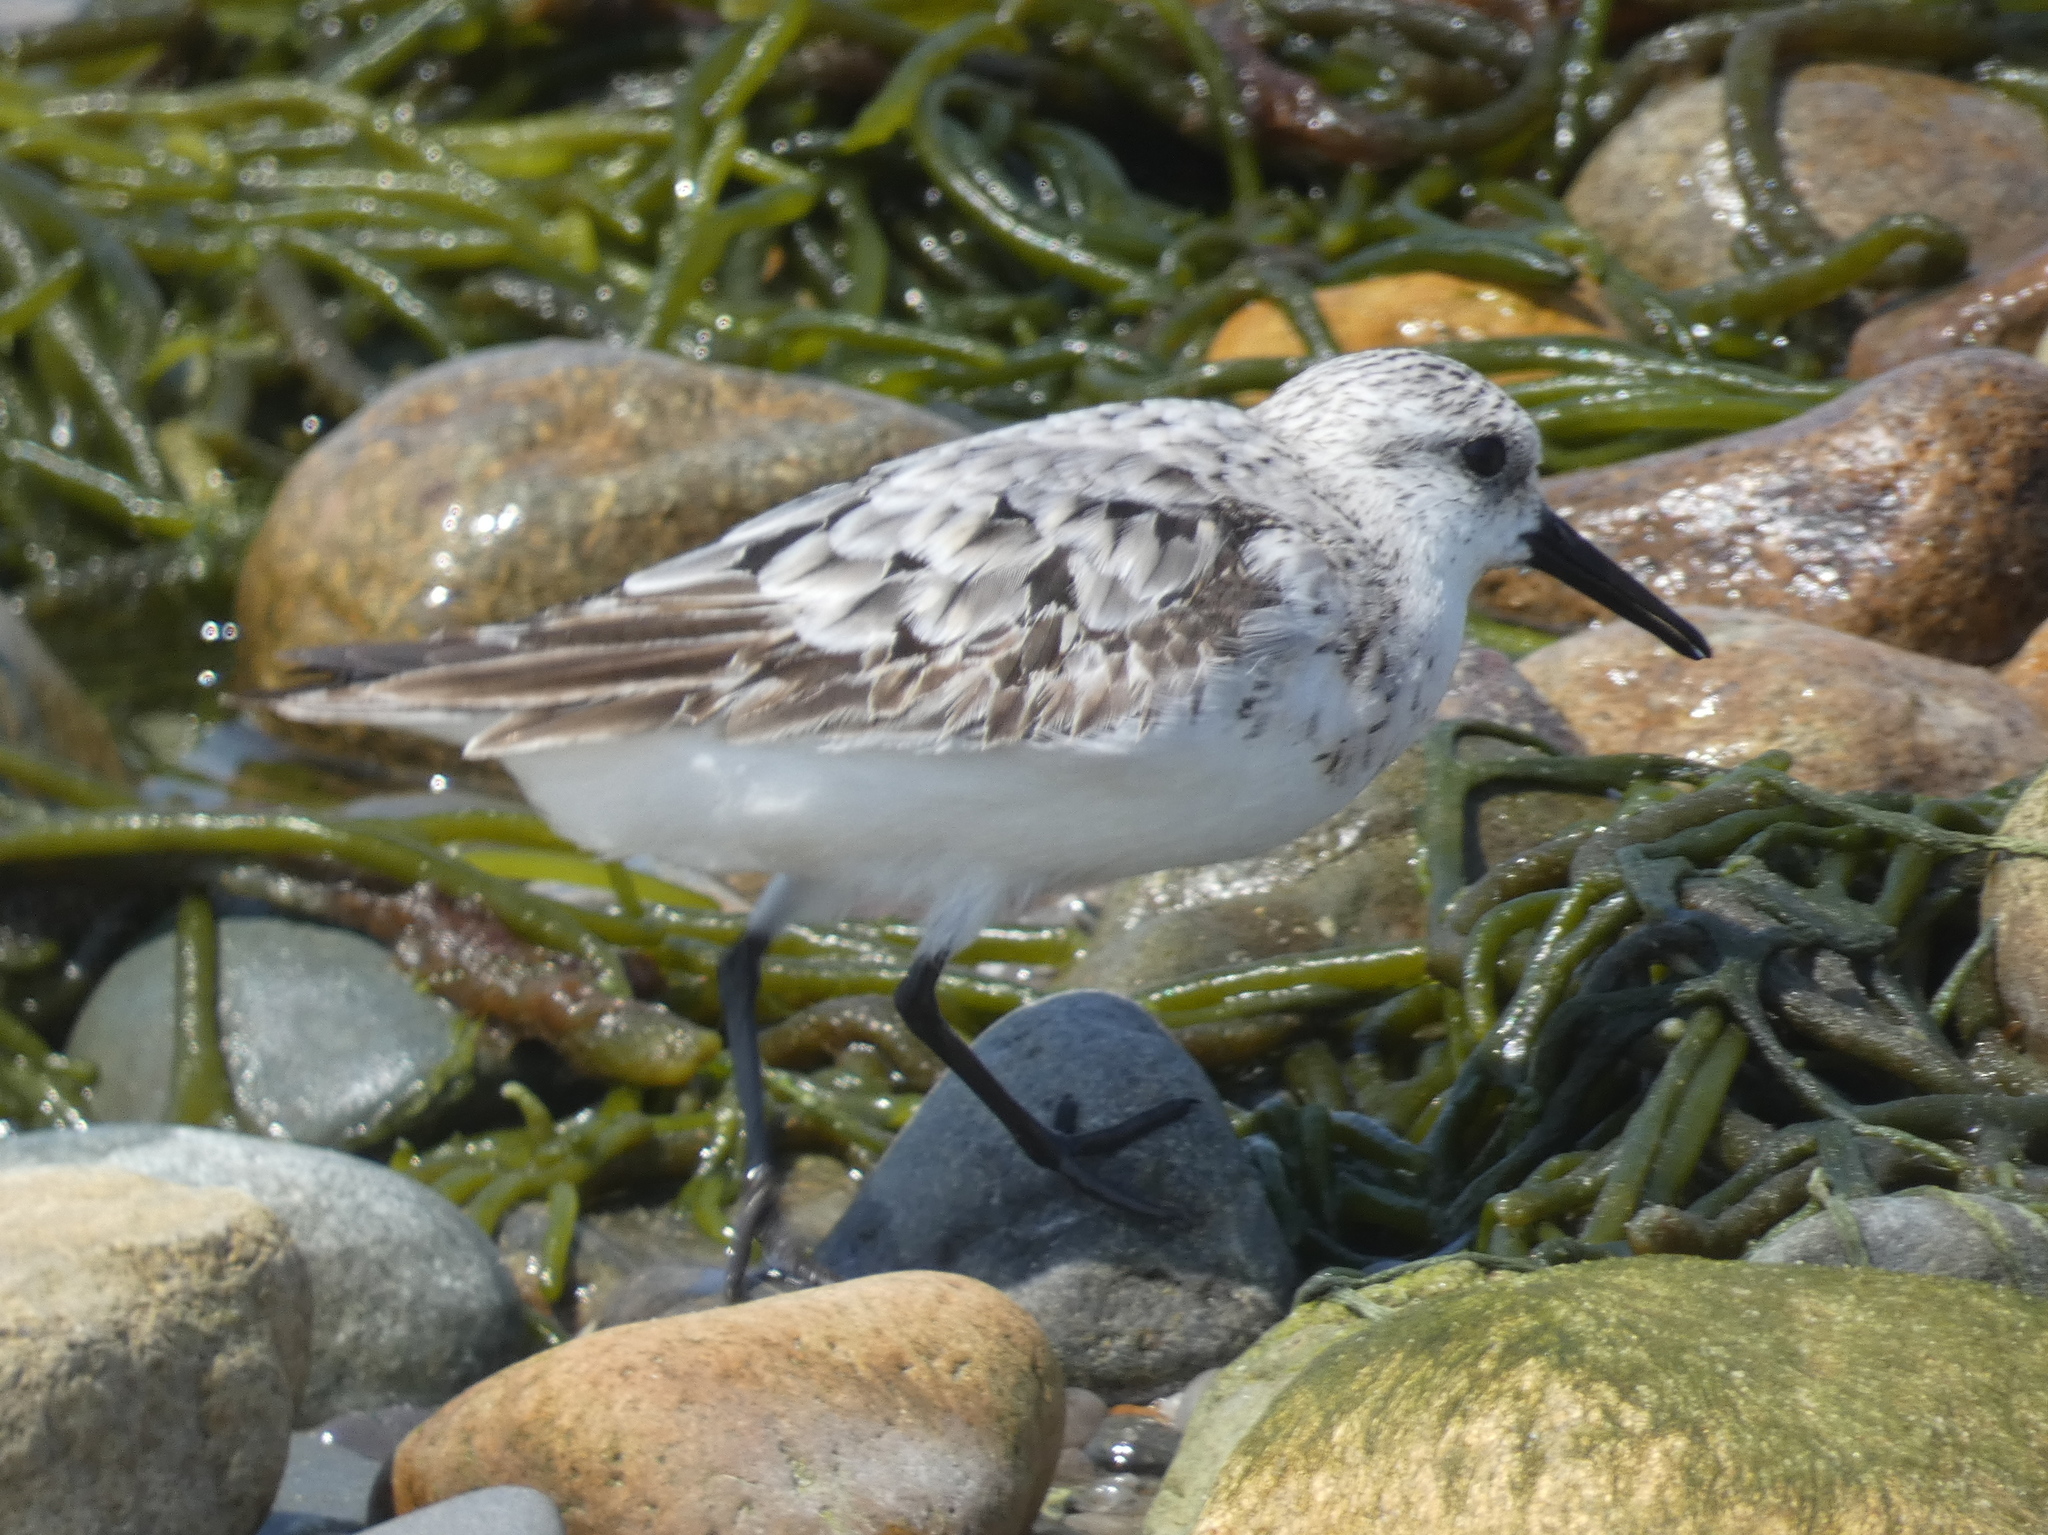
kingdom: Animalia
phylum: Chordata
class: Aves
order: Charadriiformes
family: Scolopacidae
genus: Calidris
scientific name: Calidris alba
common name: Sanderling
